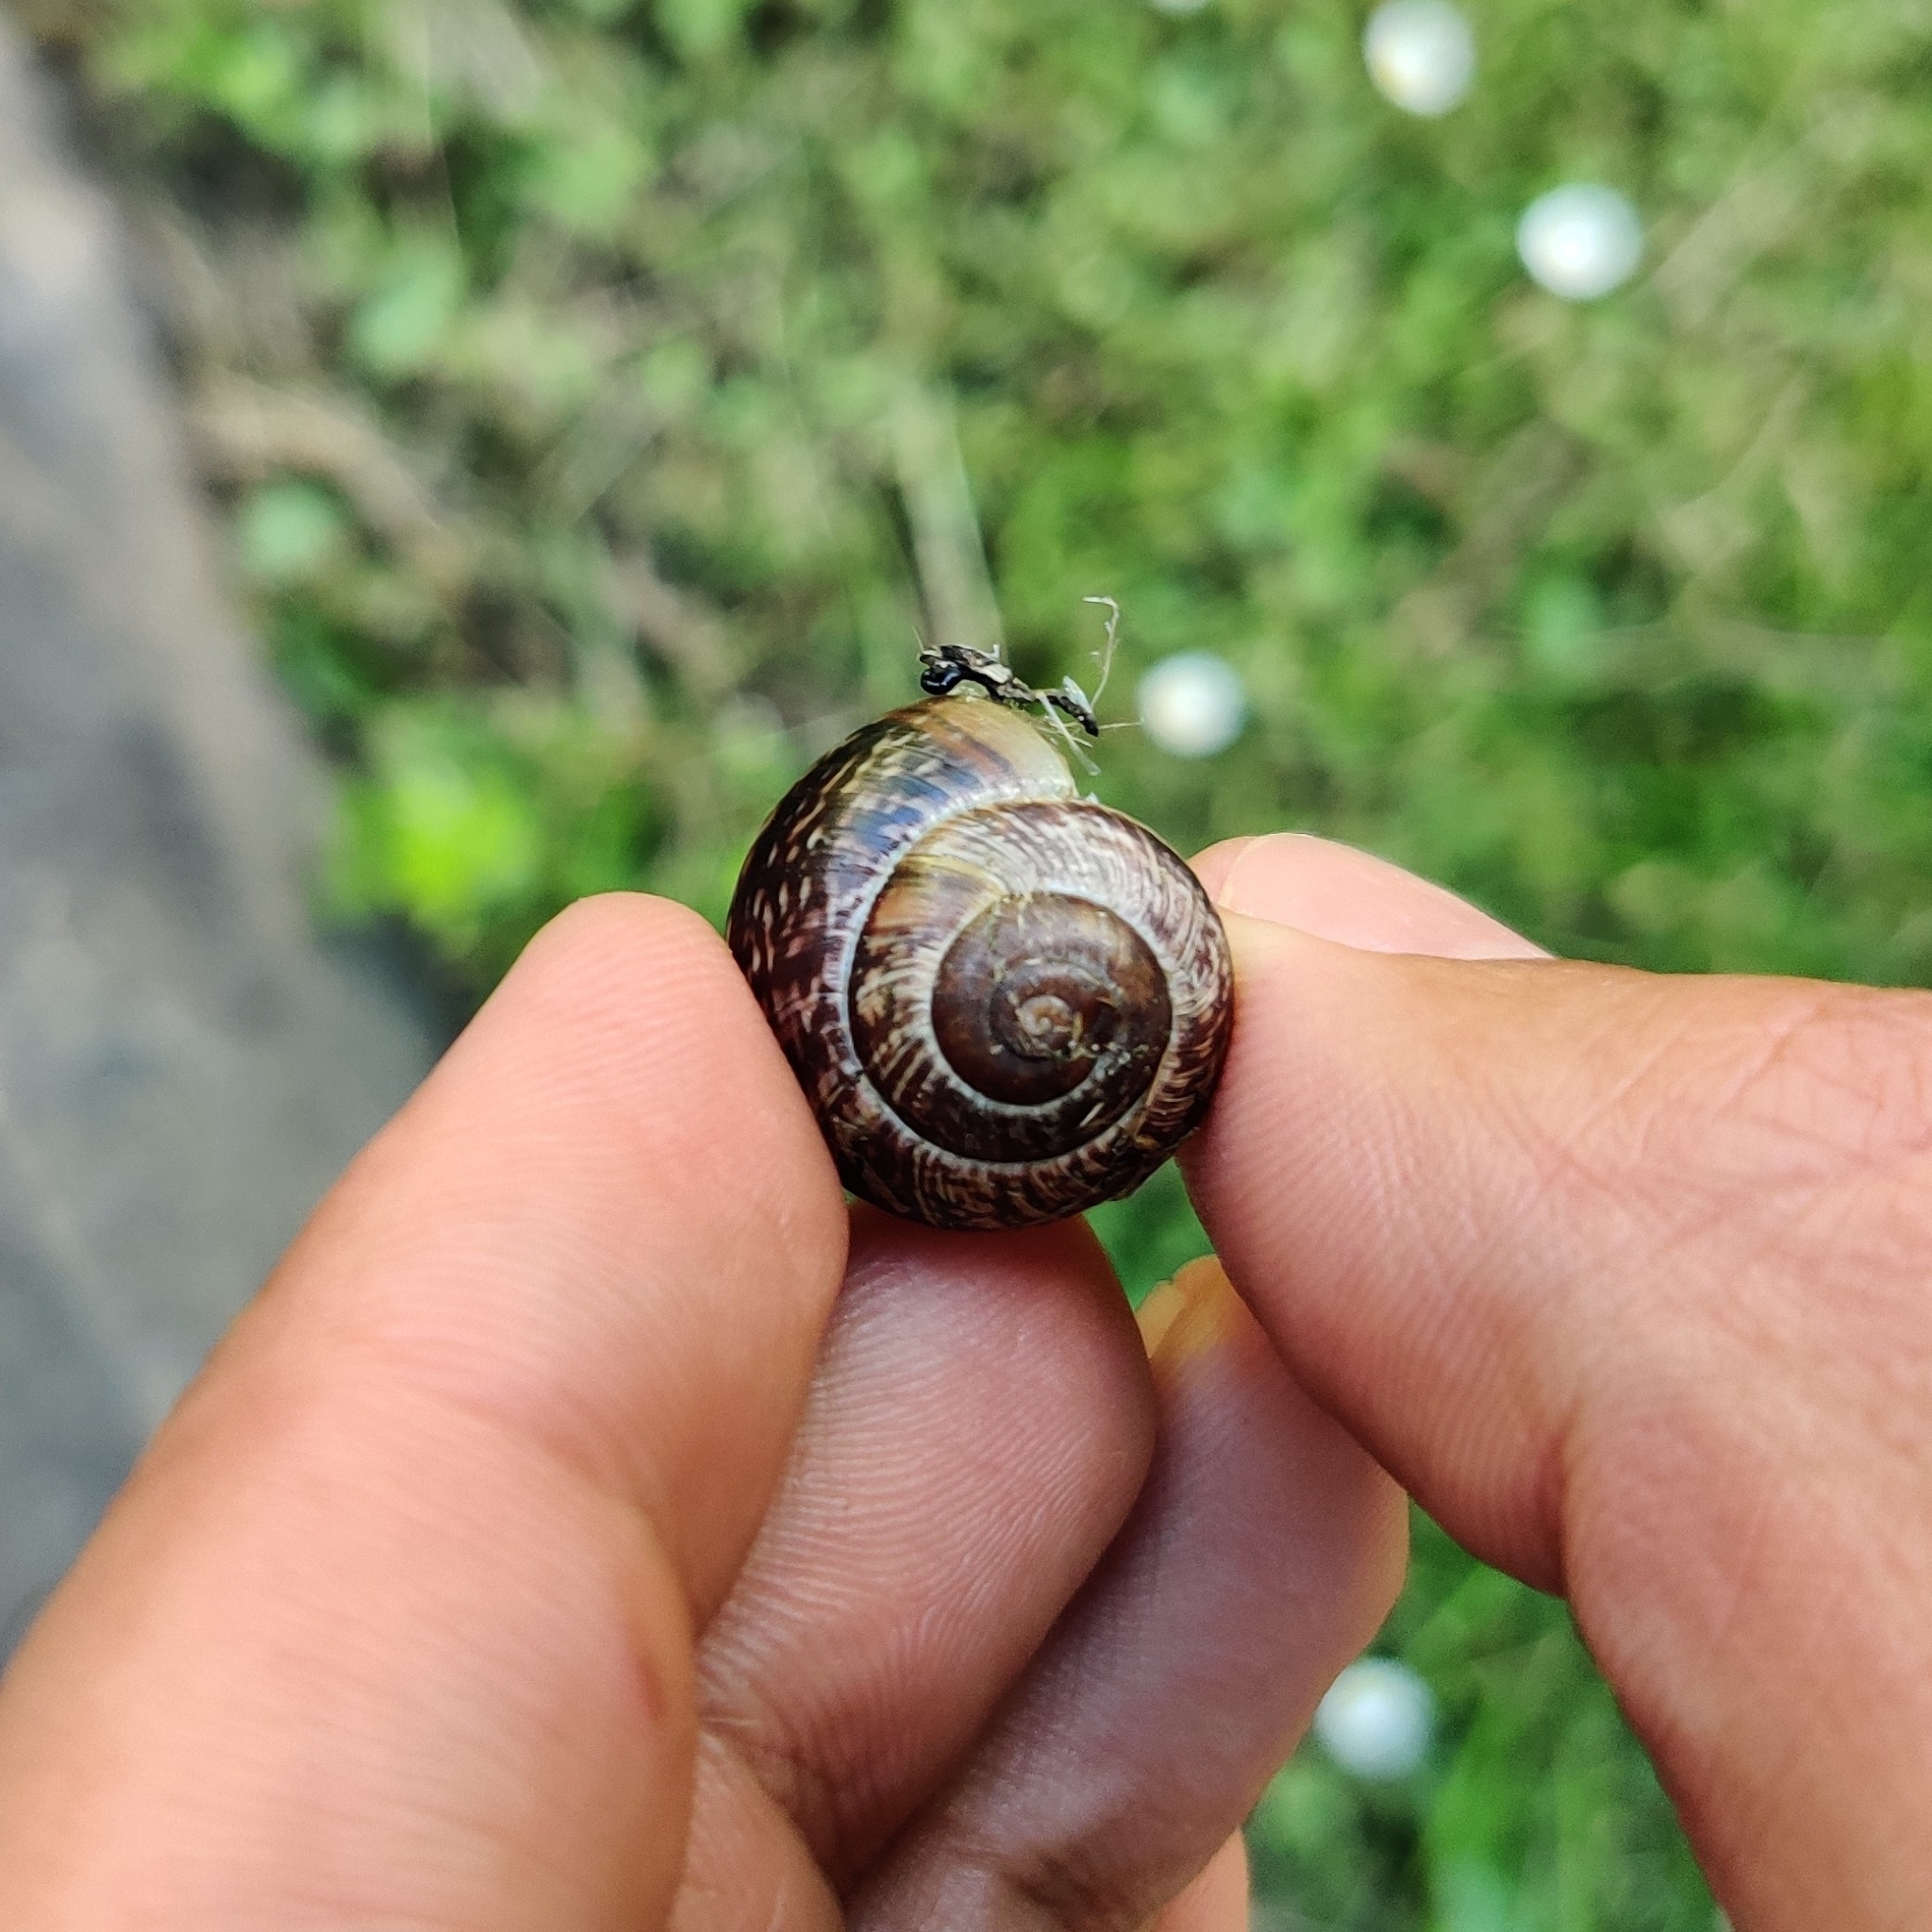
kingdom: Animalia
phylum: Mollusca
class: Gastropoda
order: Stylommatophora
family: Helicidae
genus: Arianta
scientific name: Arianta arbustorum
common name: Copse snail
